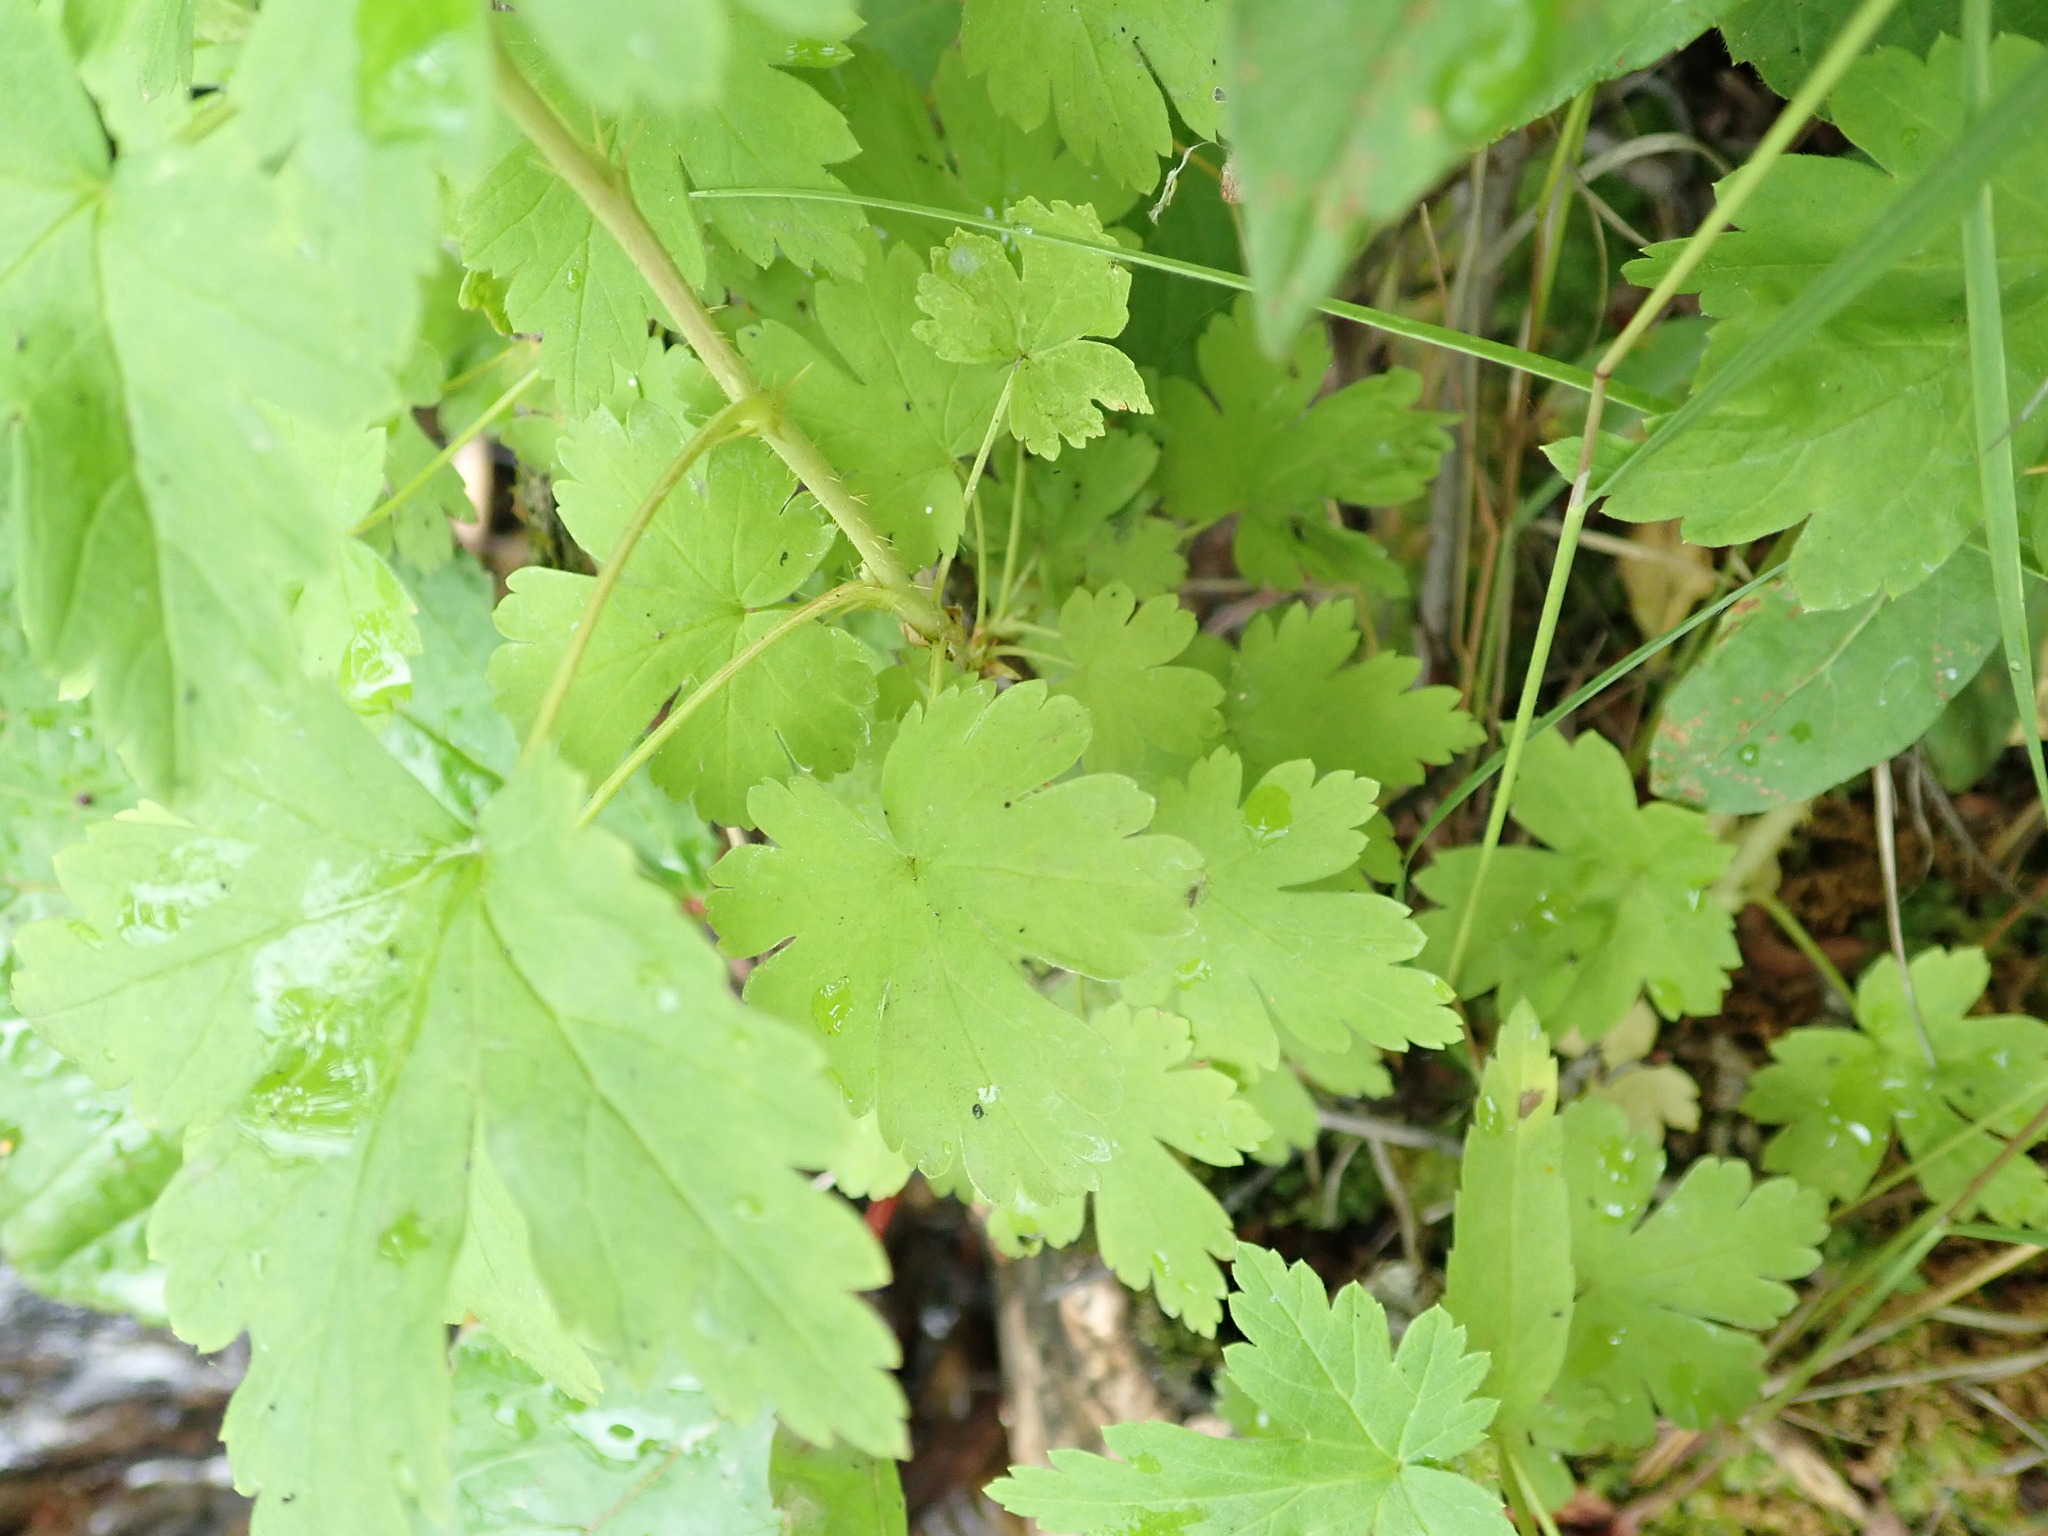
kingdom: Plantae
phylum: Tracheophyta
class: Magnoliopsida
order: Saxifragales
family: Grossulariaceae
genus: Ribes
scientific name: Ribes lacustre
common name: Black gooseberry
